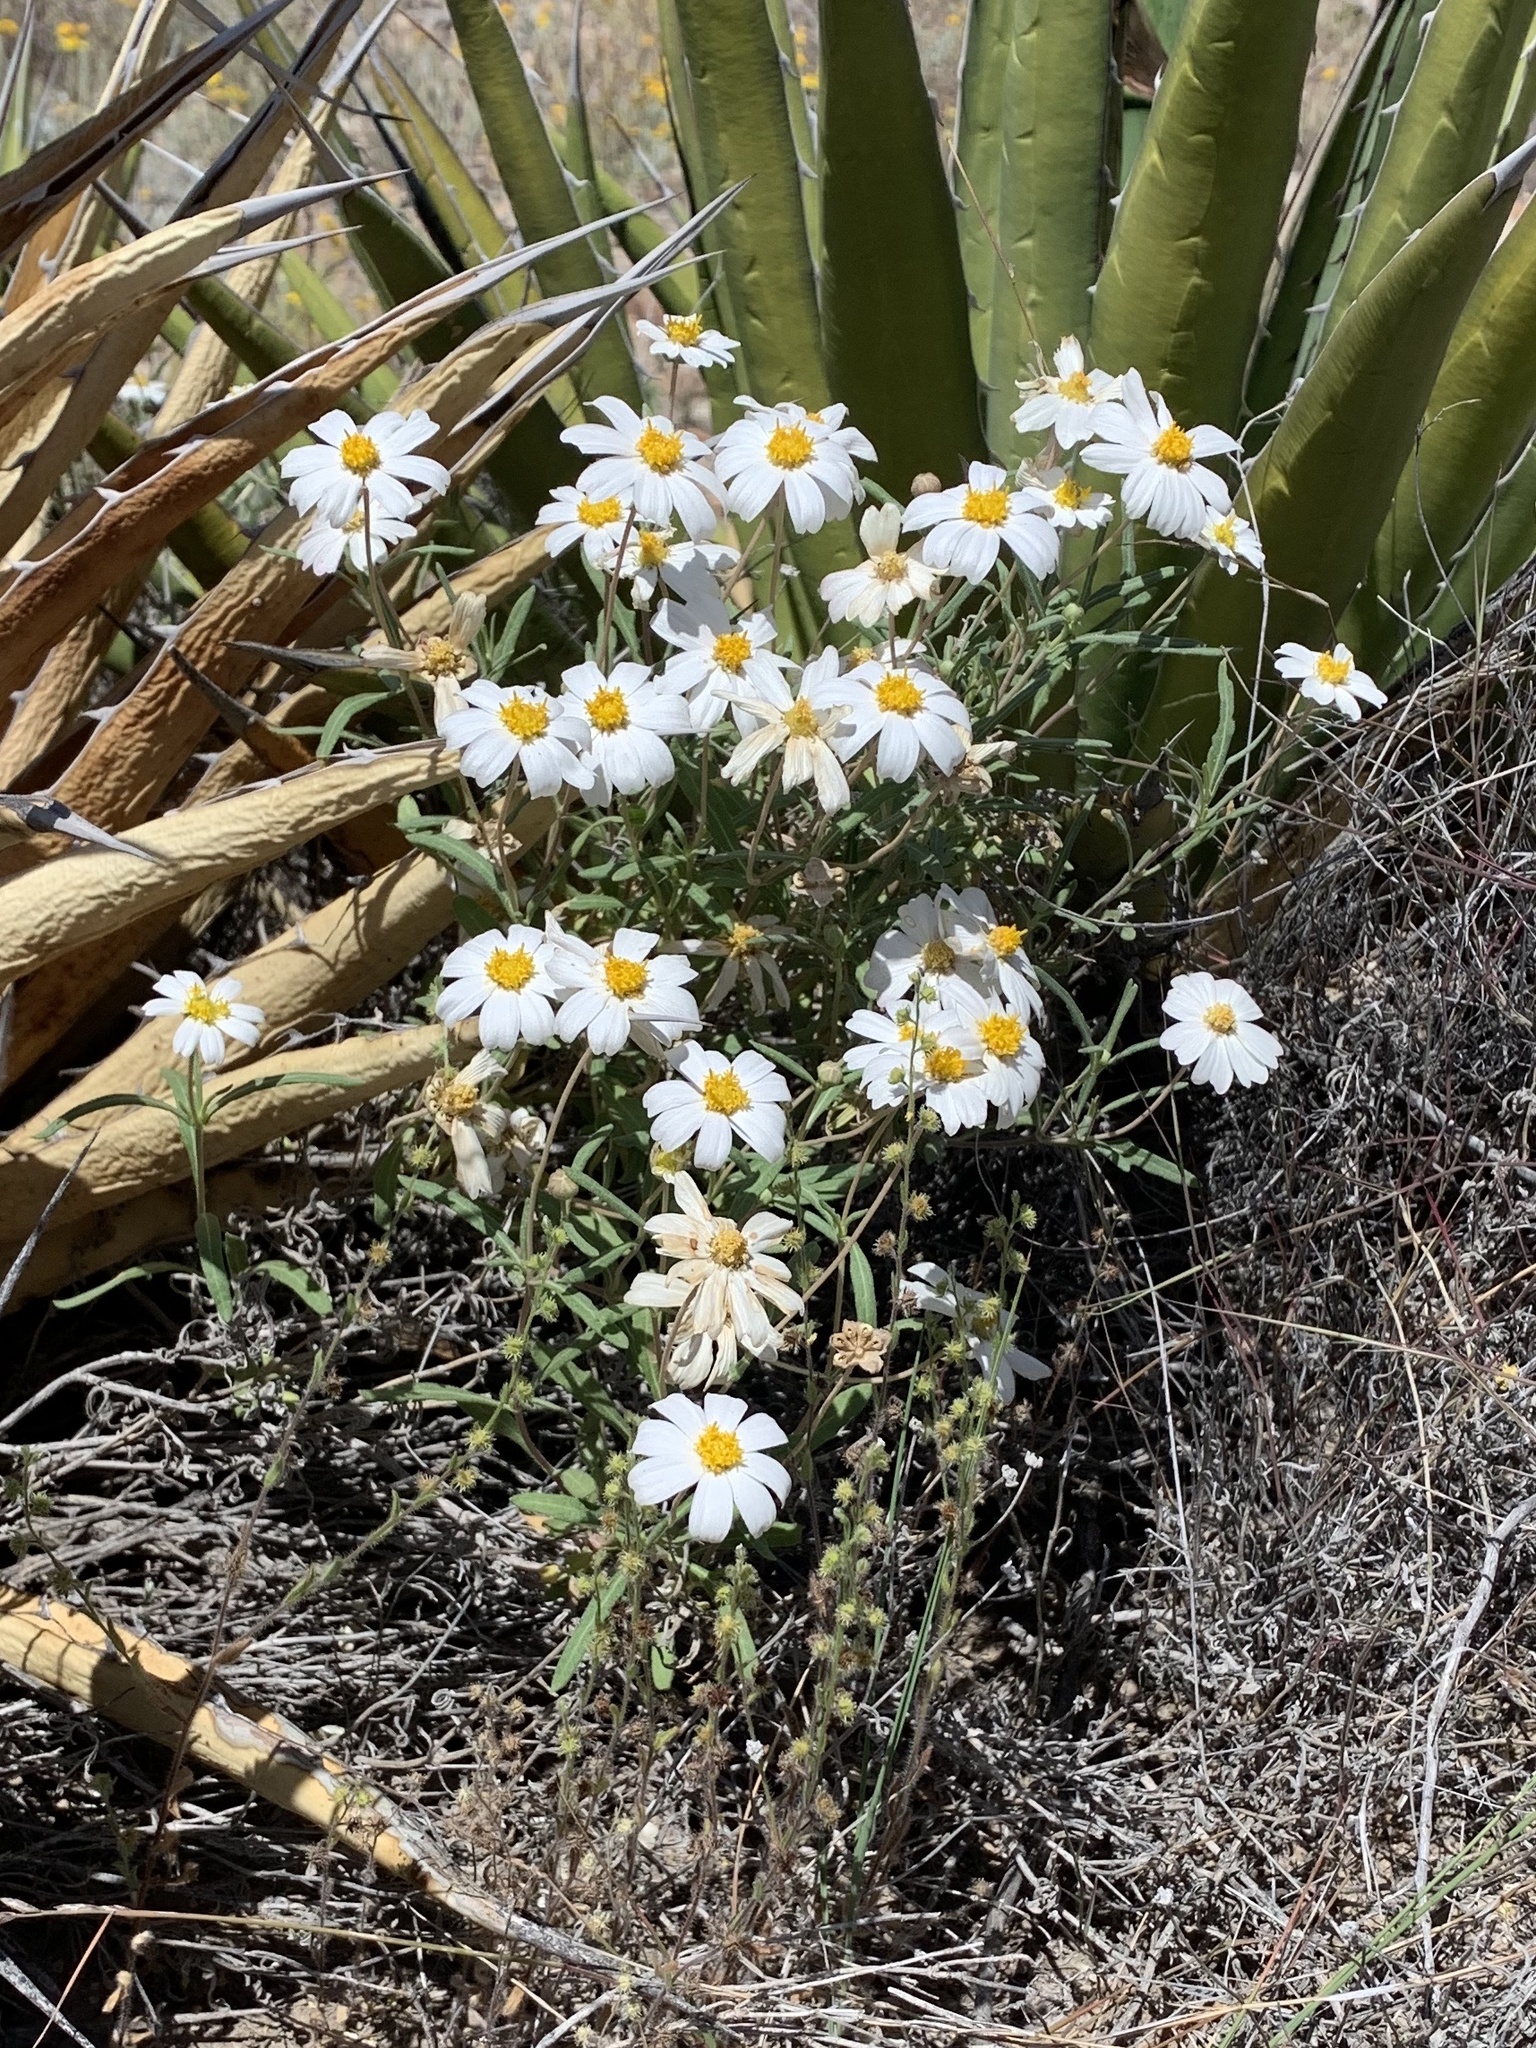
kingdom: Plantae
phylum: Tracheophyta
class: Magnoliopsida
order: Asterales
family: Asteraceae
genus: Melampodium
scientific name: Melampodium leucanthum
